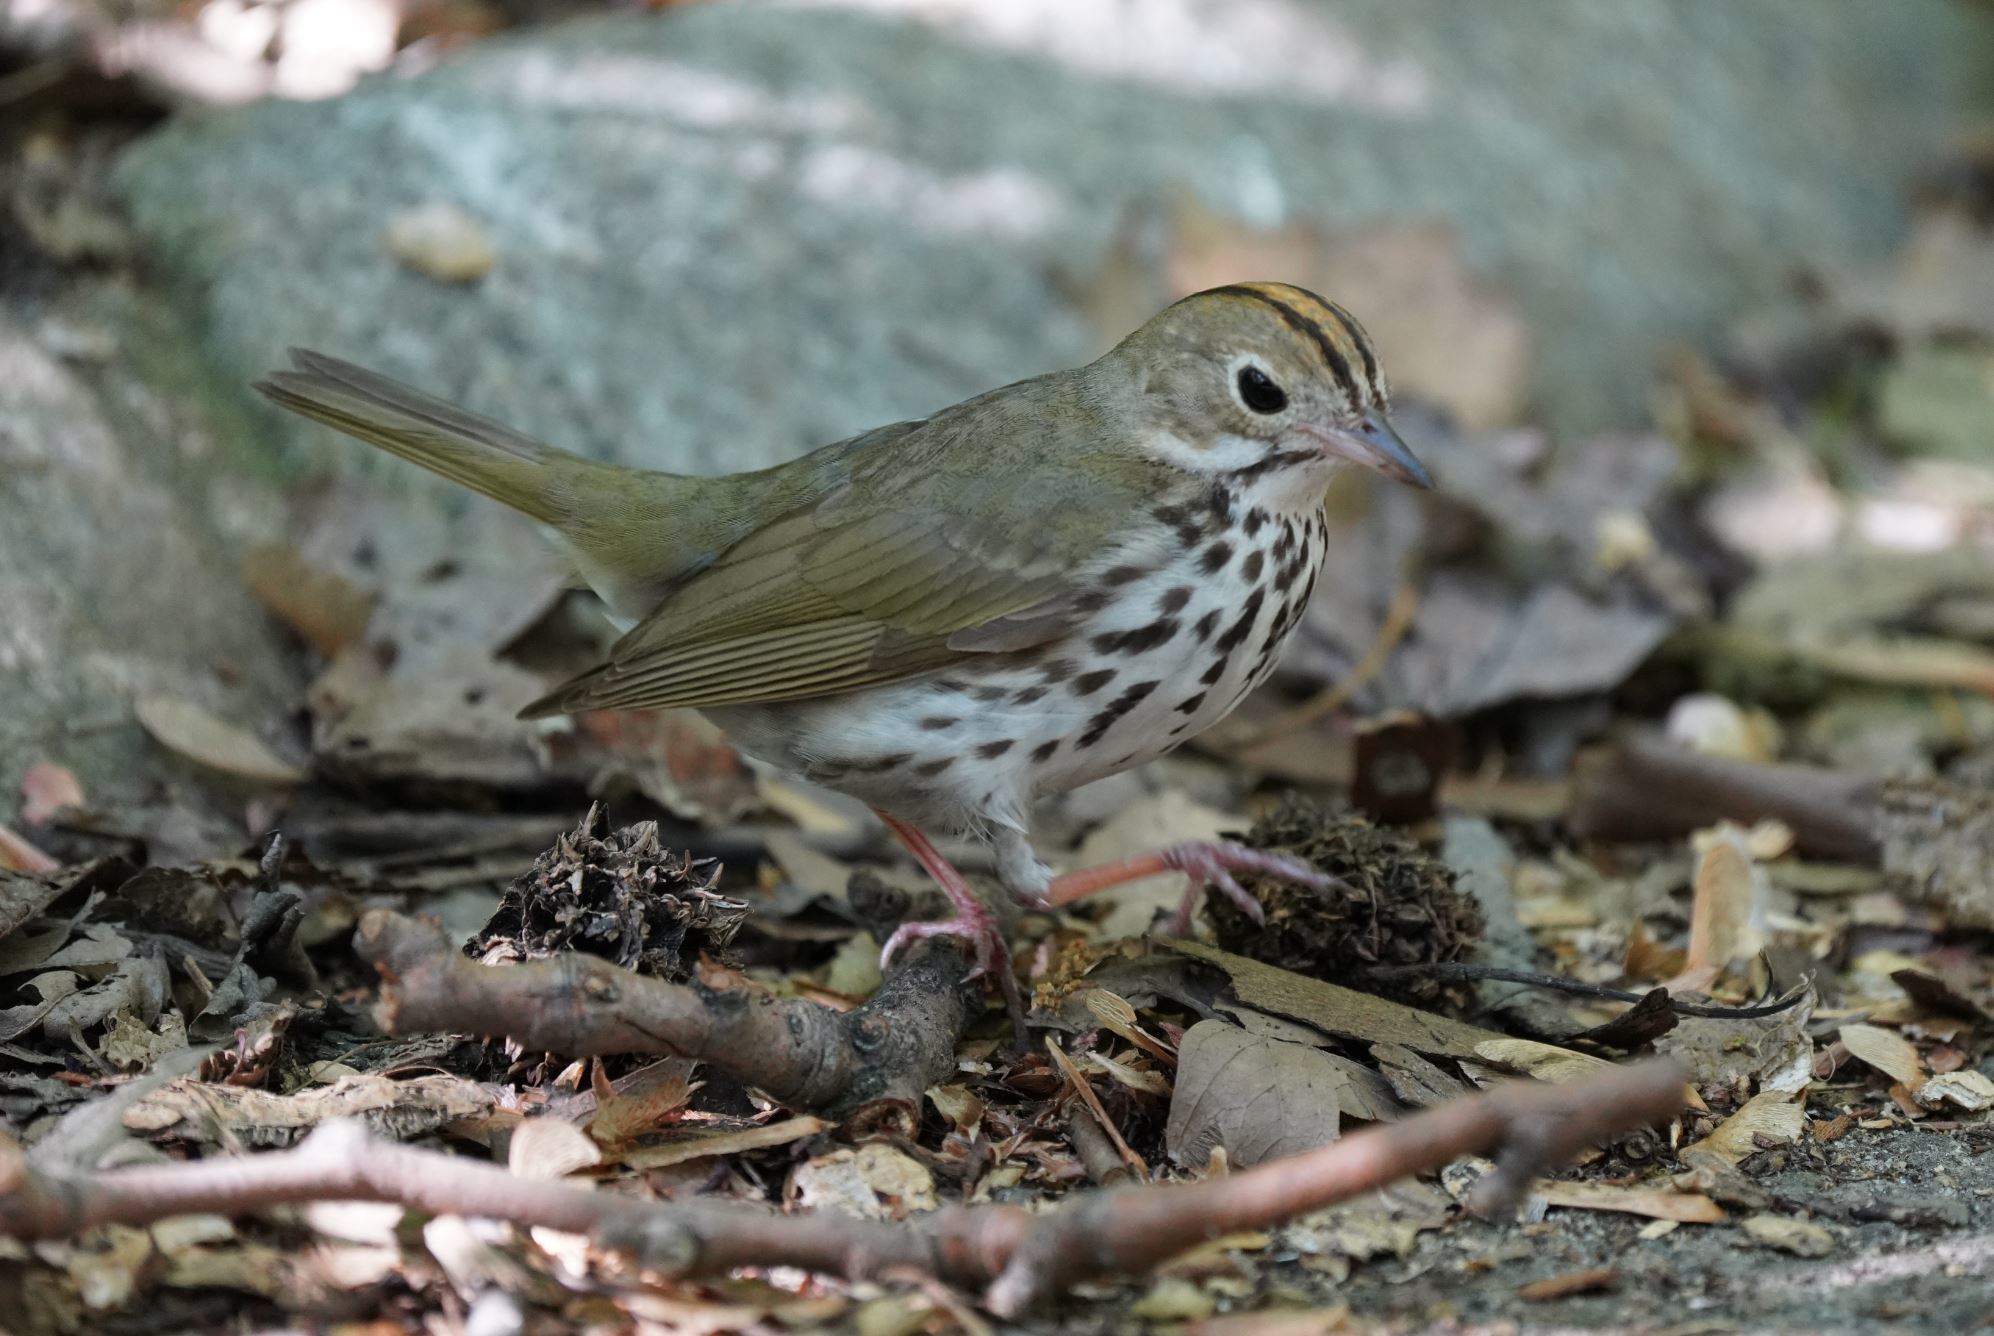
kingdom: Animalia
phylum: Chordata
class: Aves
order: Passeriformes
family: Parulidae
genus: Seiurus
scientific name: Seiurus aurocapilla
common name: Ovenbird
